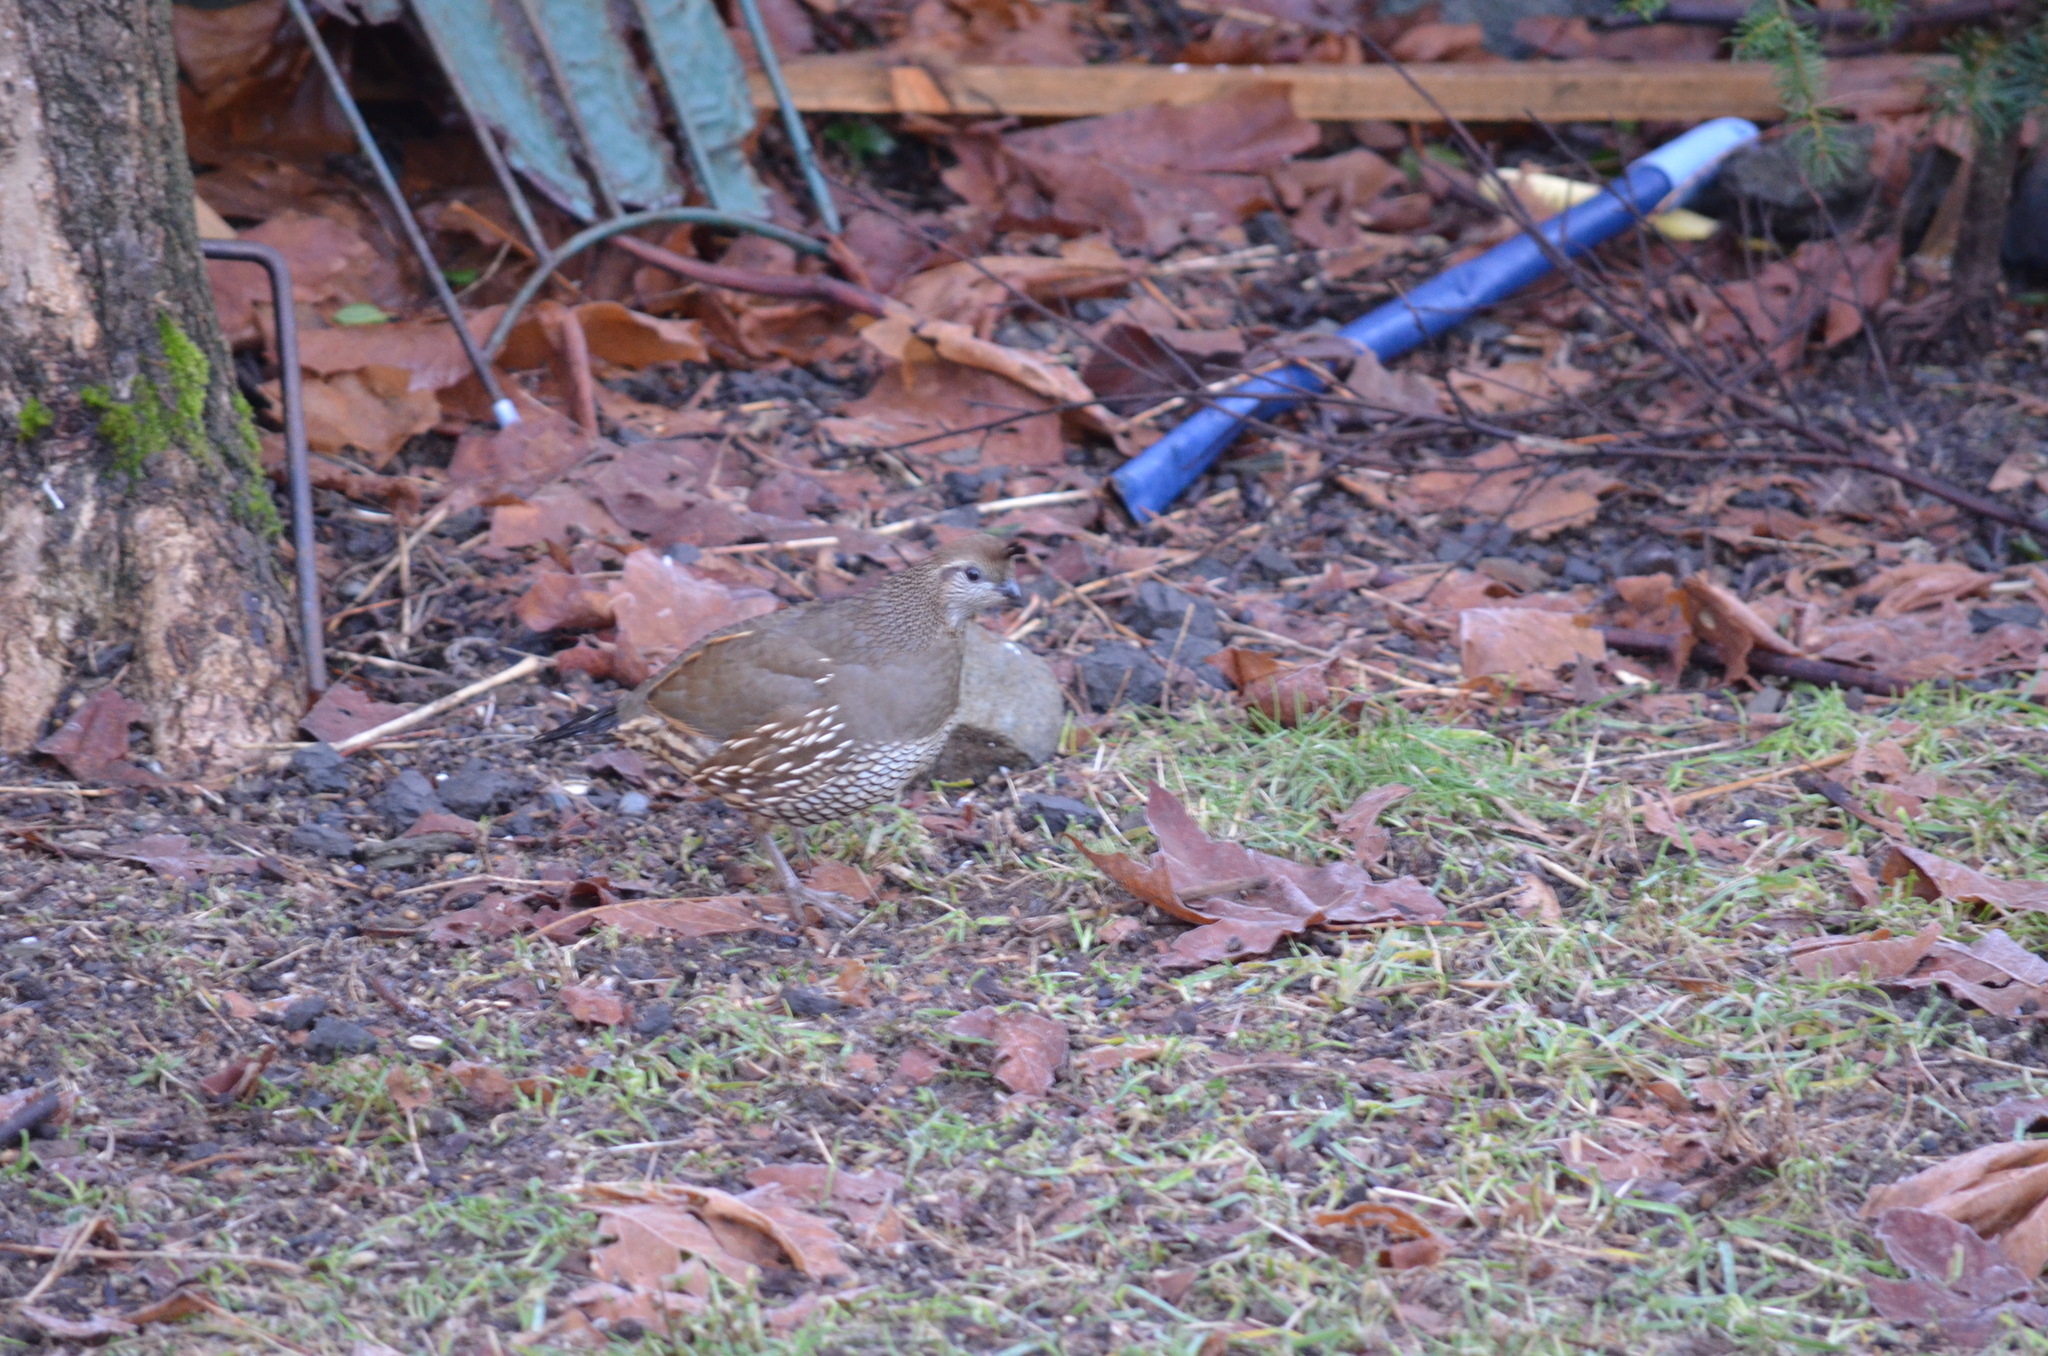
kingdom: Animalia
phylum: Chordata
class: Aves
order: Galliformes
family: Odontophoridae
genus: Callipepla
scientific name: Callipepla californica
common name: California quail
